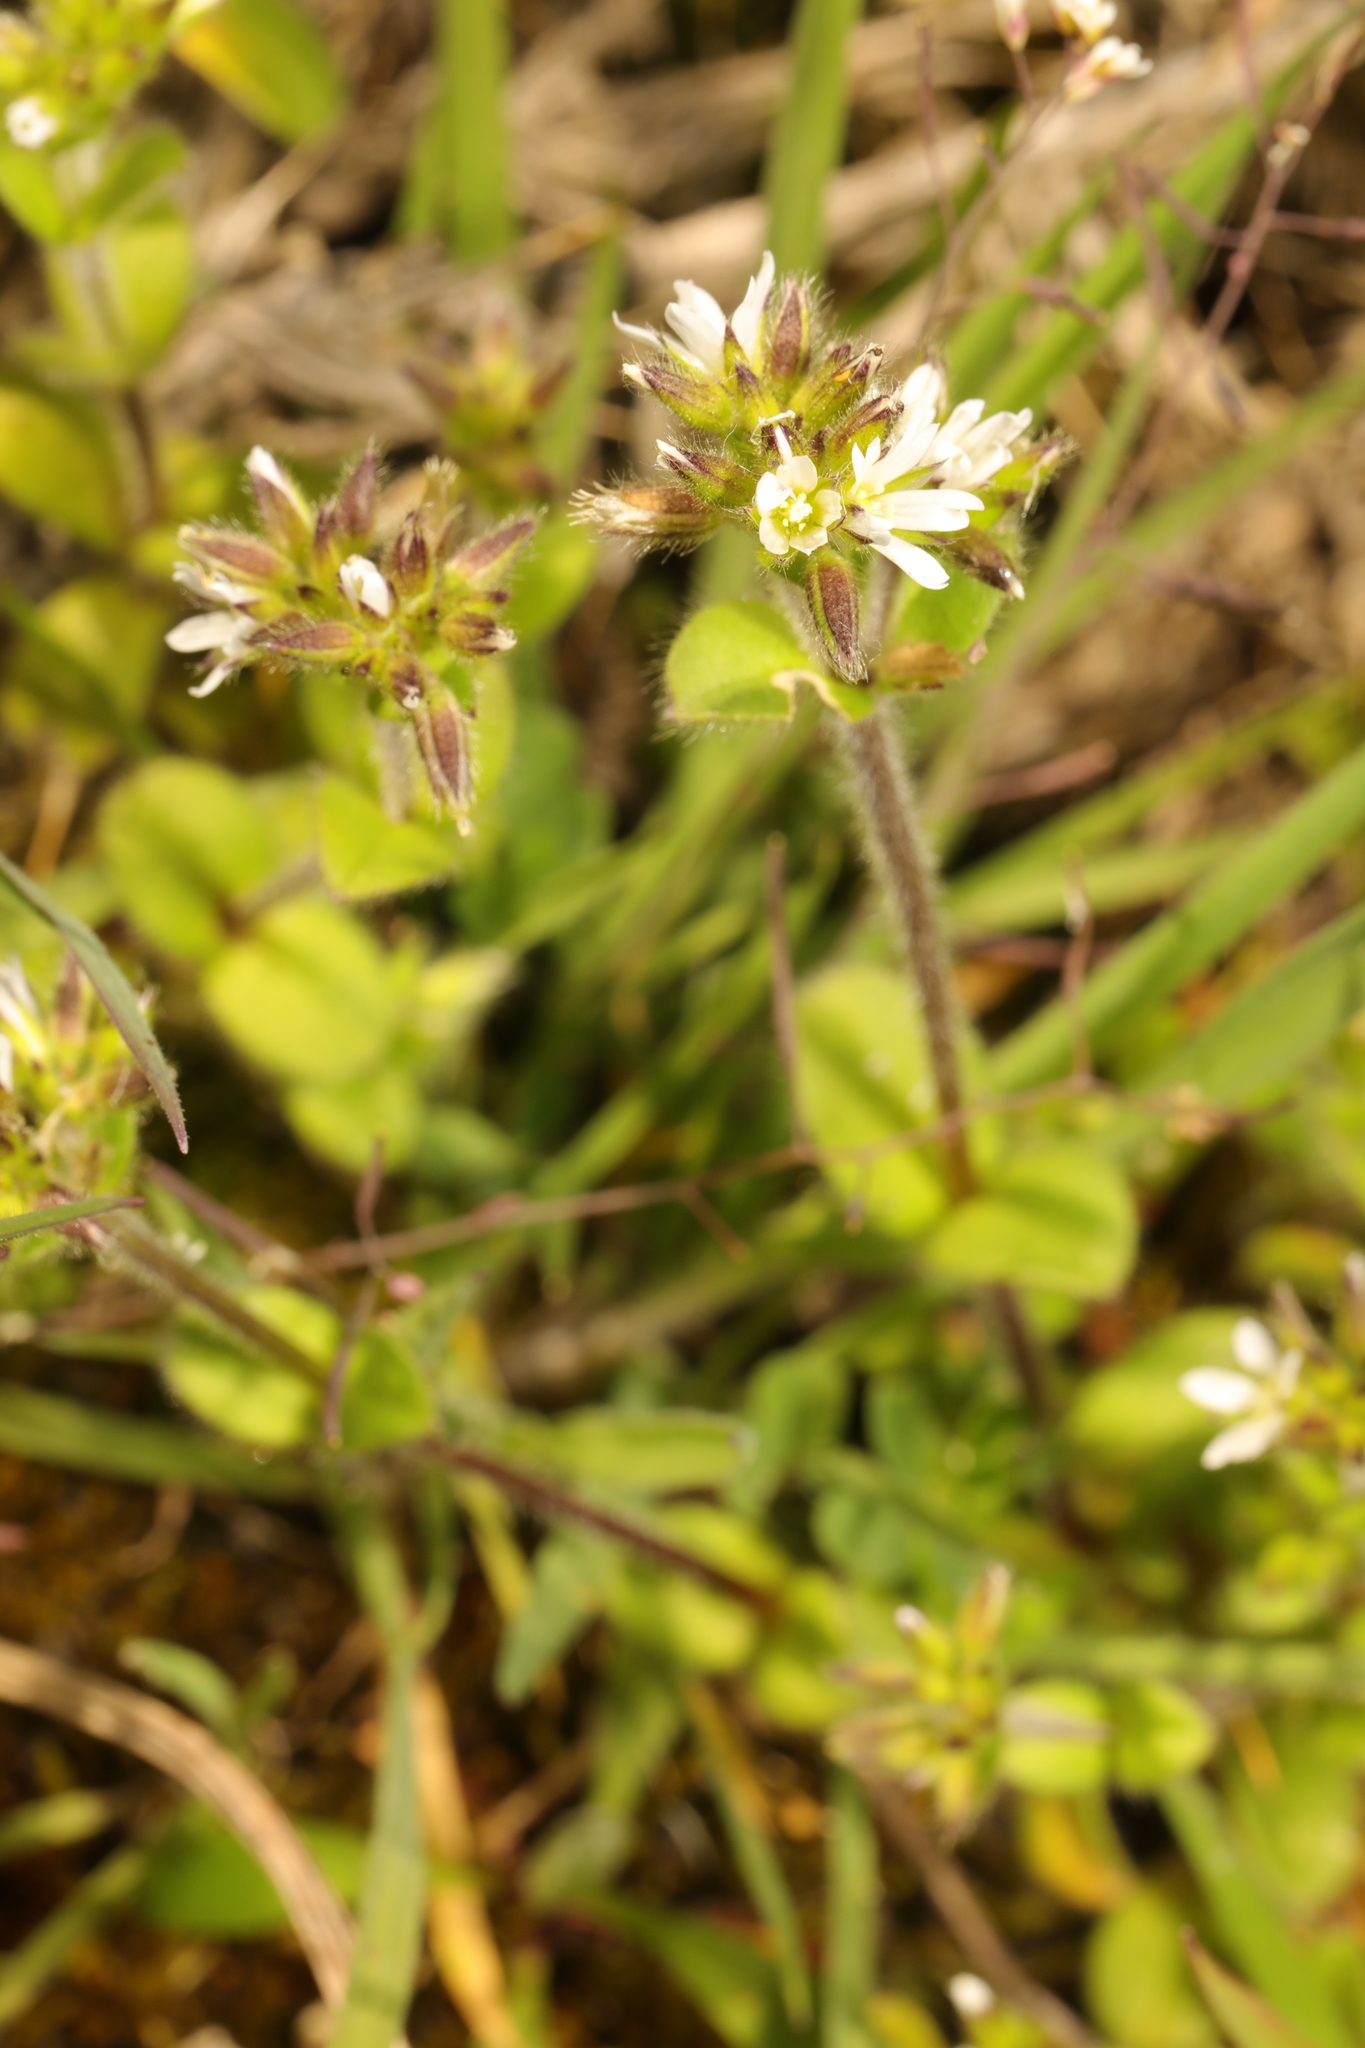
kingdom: Plantae
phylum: Tracheophyta
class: Magnoliopsida
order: Caryophyllales
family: Caryophyllaceae
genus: Cerastium
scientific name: Cerastium glomeratum
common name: Sticky chickweed
